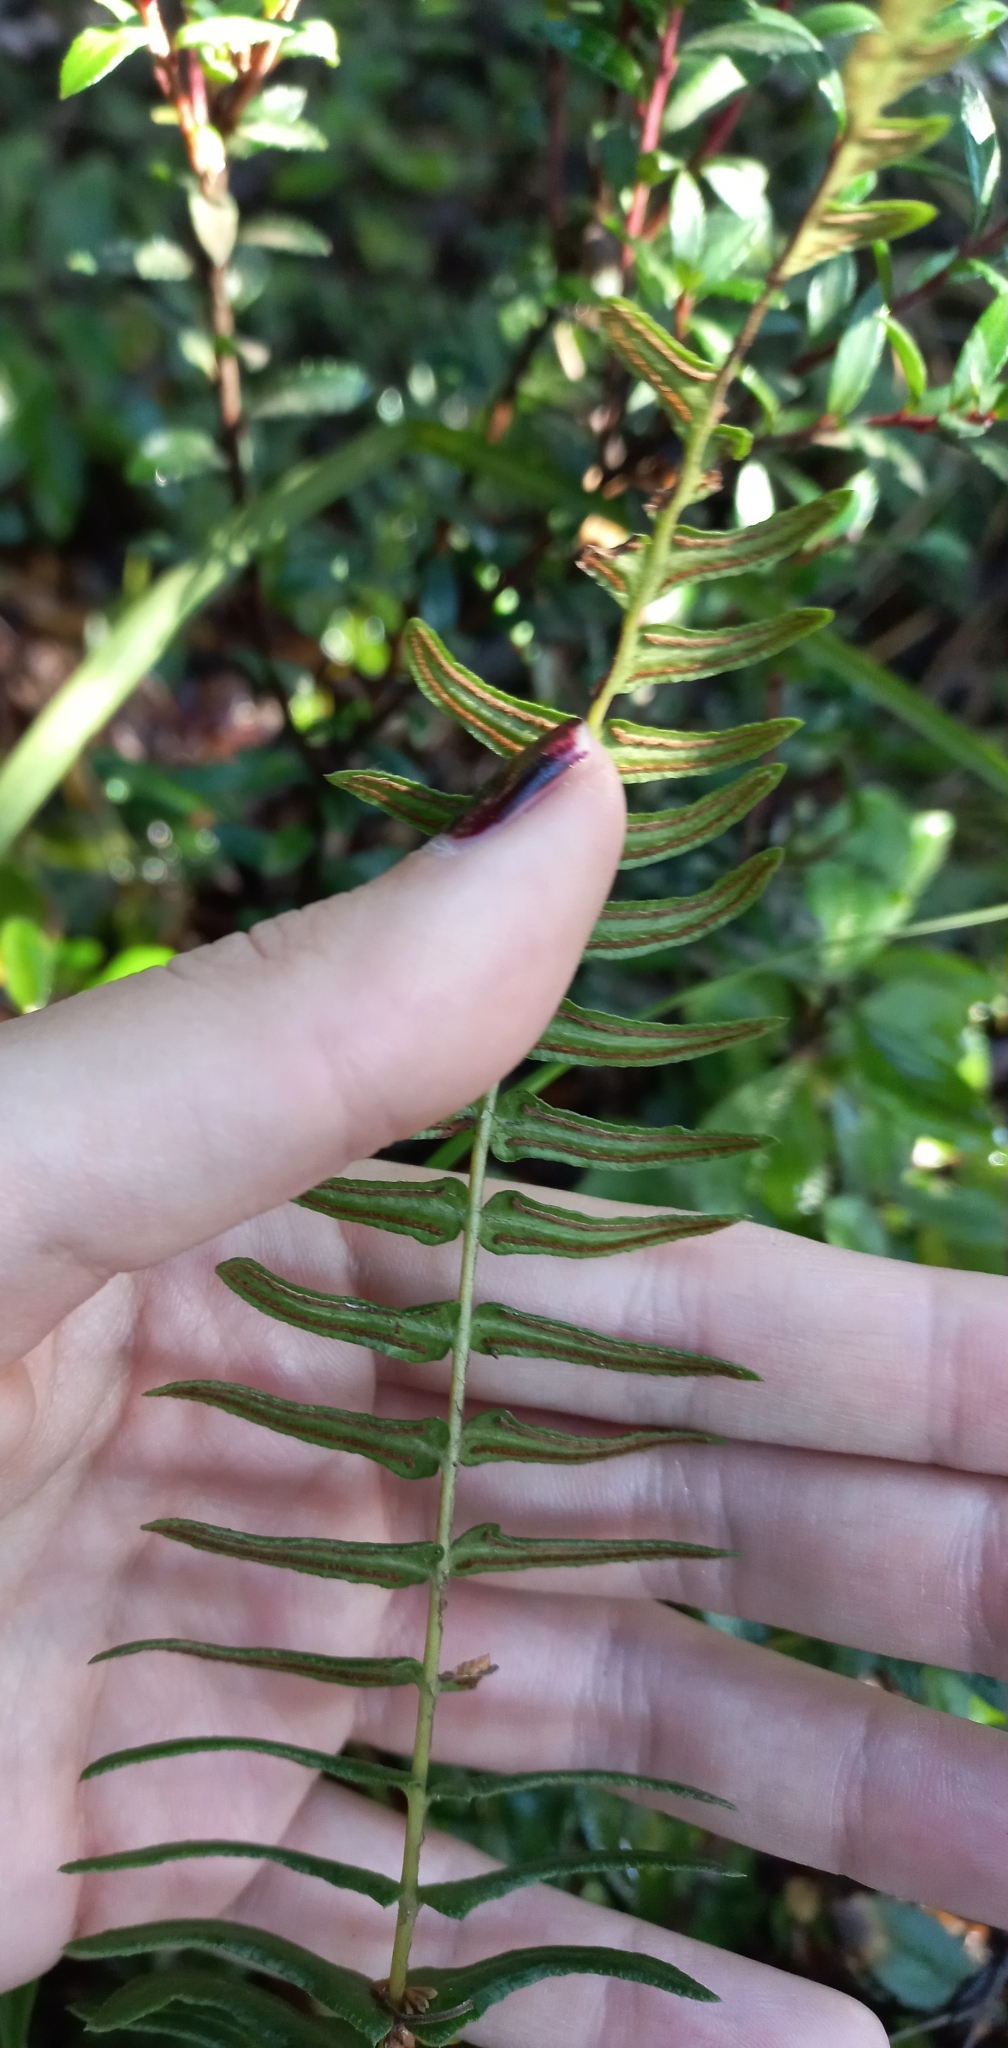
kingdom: Plantae
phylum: Tracheophyta
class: Polypodiopsida
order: Polypodiales
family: Blechnaceae
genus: Blechnum
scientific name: Blechnum hastatum
